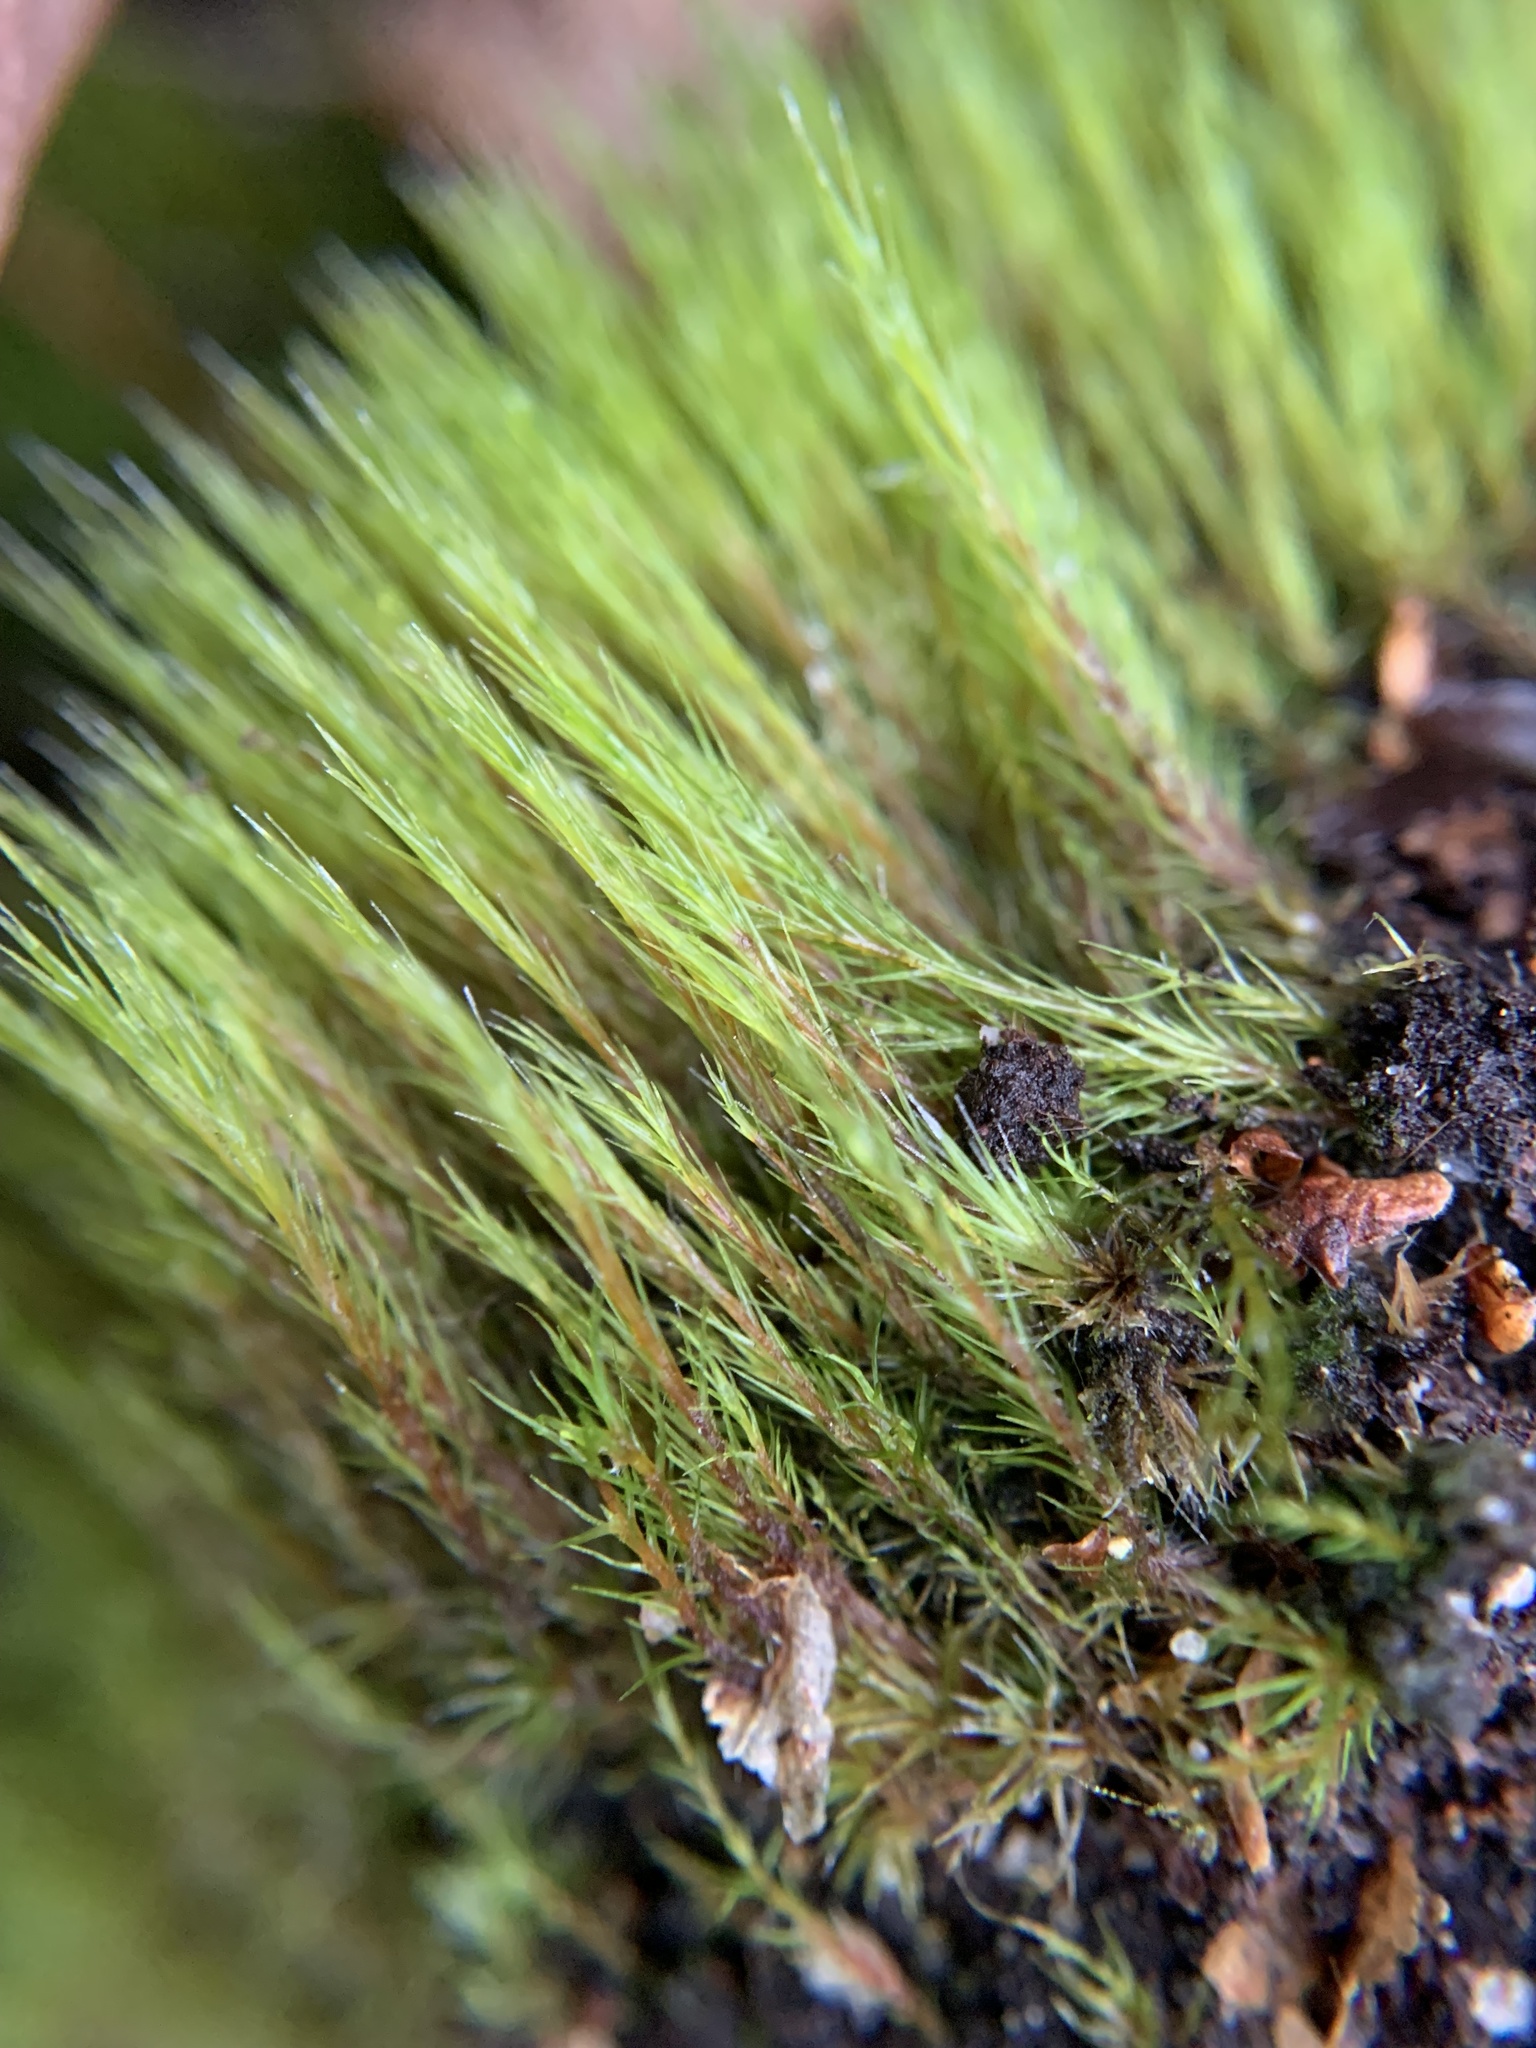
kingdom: Plantae
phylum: Bryophyta
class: Bryopsida
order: Dicranales
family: Leucobryaceae
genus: Campylopus
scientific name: Campylopus introflexus
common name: Heath star moss
